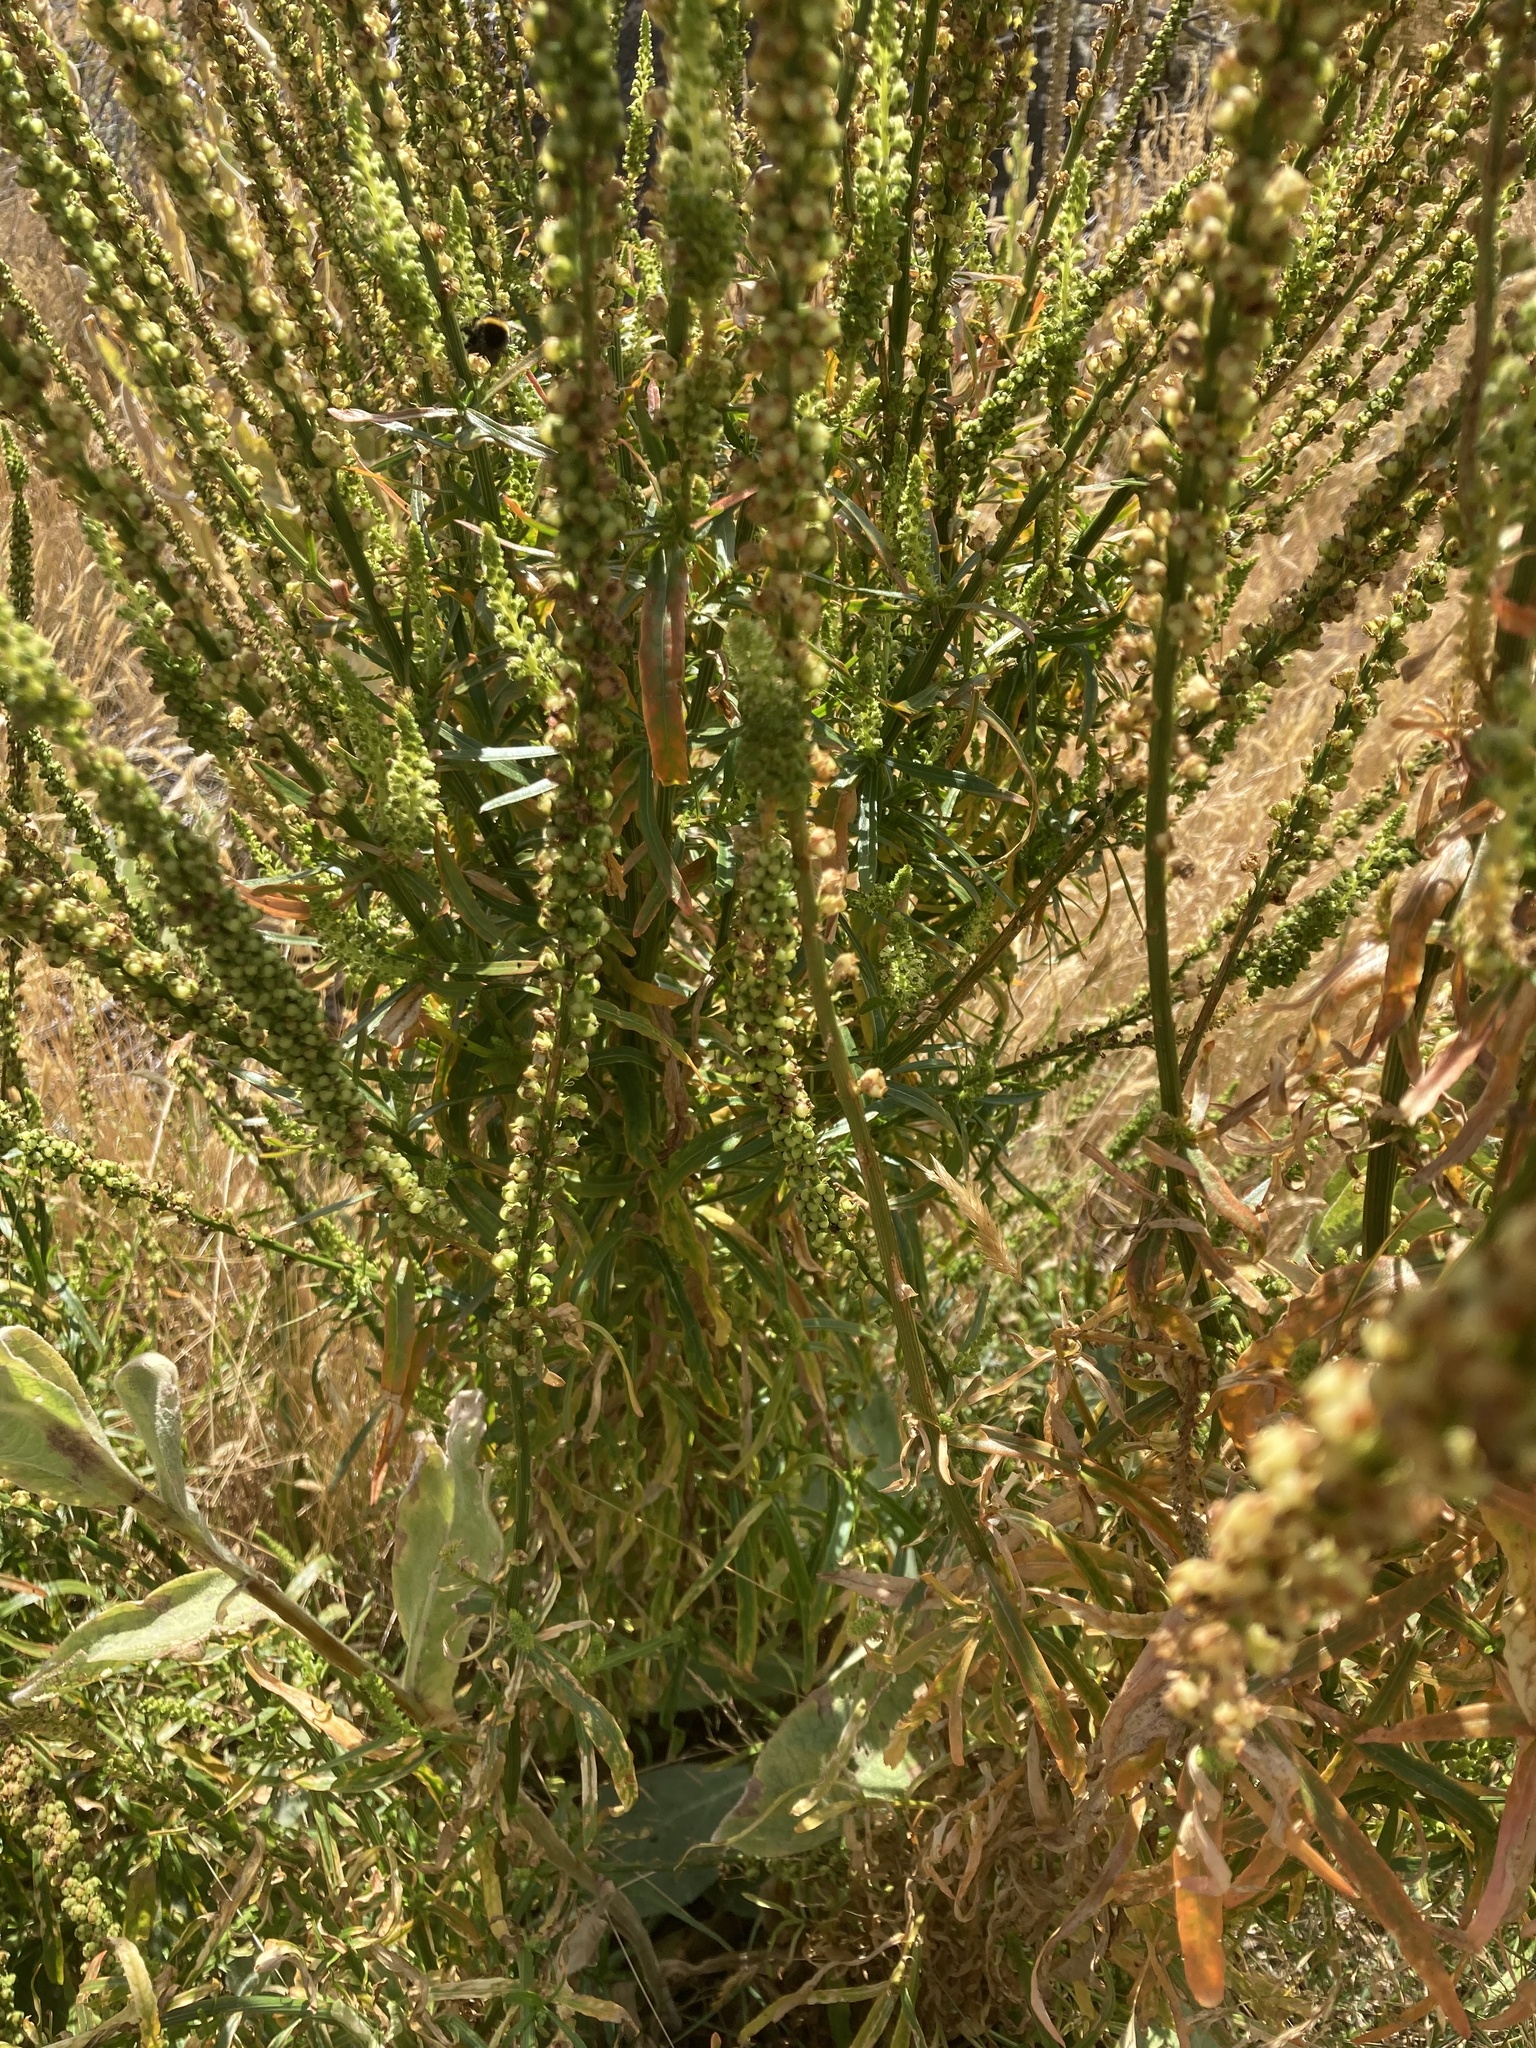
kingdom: Plantae
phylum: Tracheophyta
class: Magnoliopsida
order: Brassicales
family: Resedaceae
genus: Reseda
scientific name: Reseda luteola
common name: Weld
